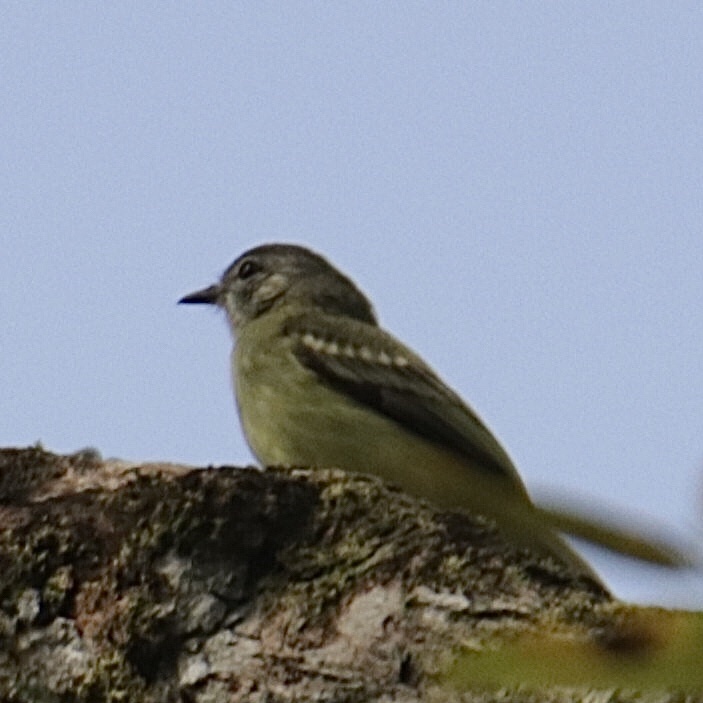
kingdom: Animalia
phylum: Chordata
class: Aves
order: Passeriformes
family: Tyrannidae
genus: Myiopagis
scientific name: Myiopagis gaimardii
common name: Forest elaenia
